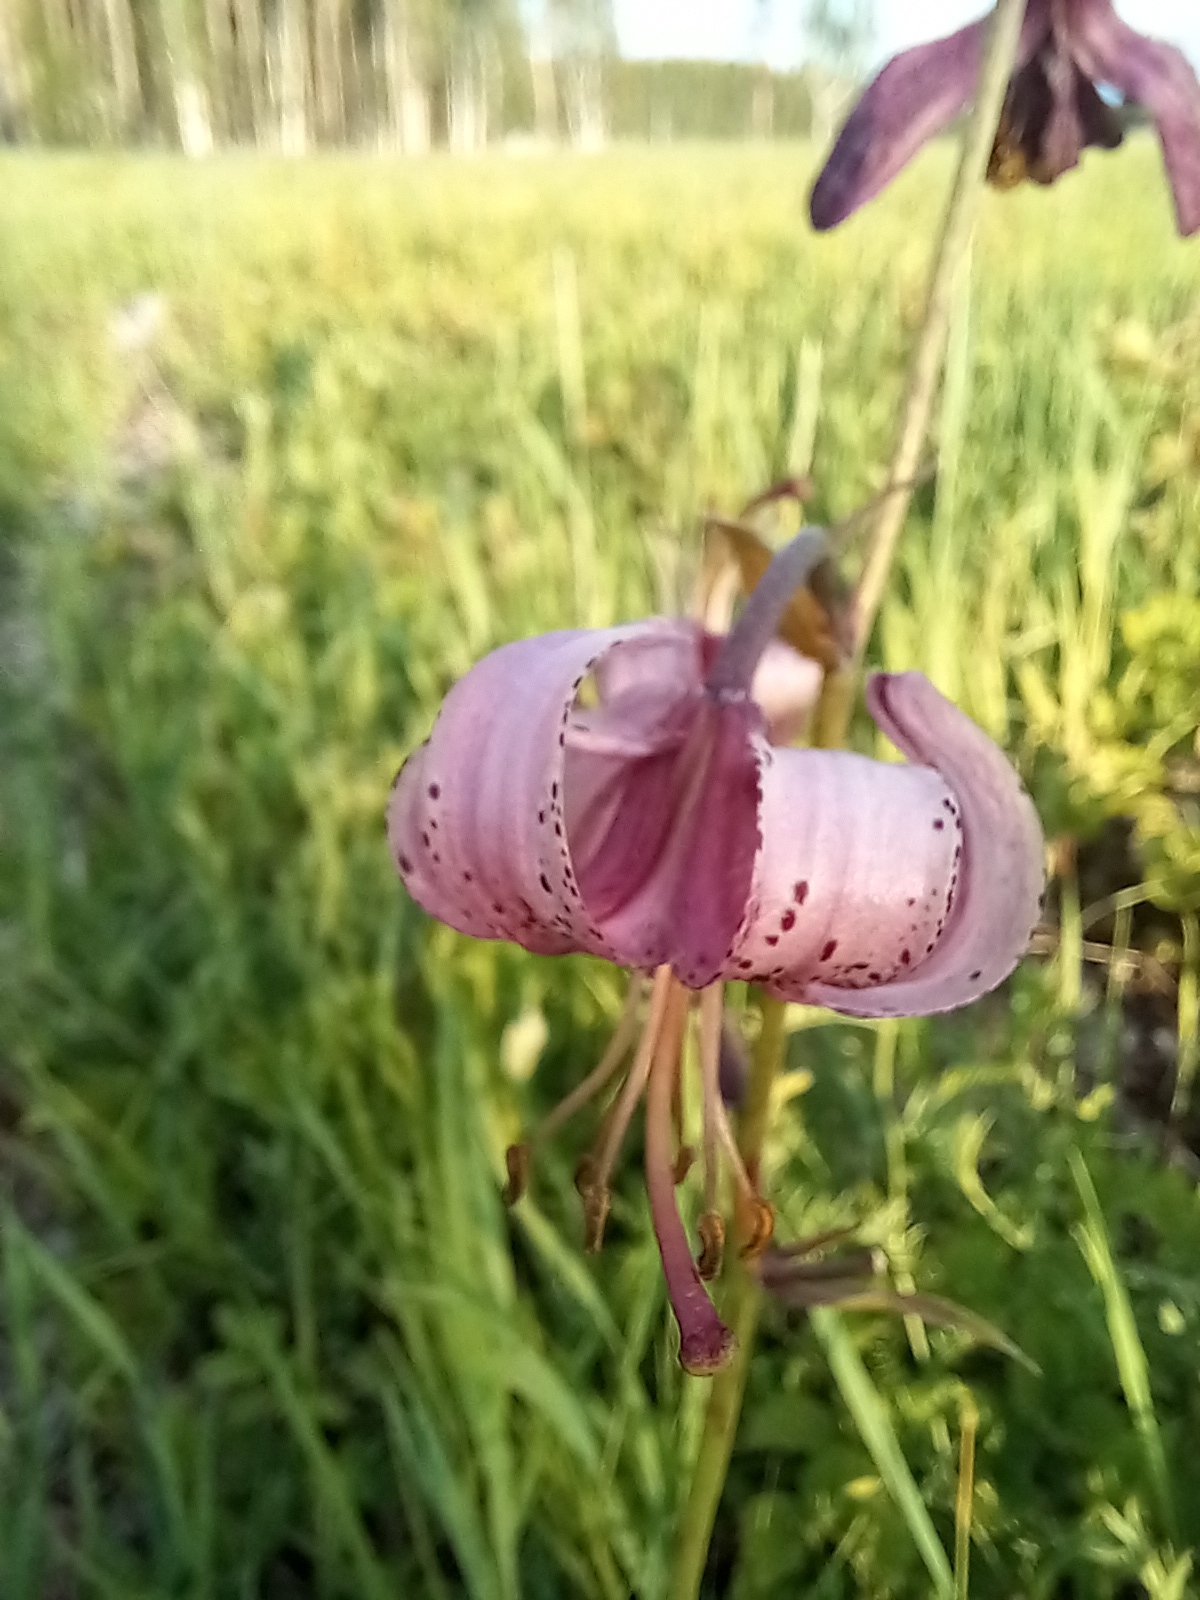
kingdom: Plantae
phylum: Tracheophyta
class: Liliopsida
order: Liliales
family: Liliaceae
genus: Lilium
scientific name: Lilium martagon
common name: Martagon lily
